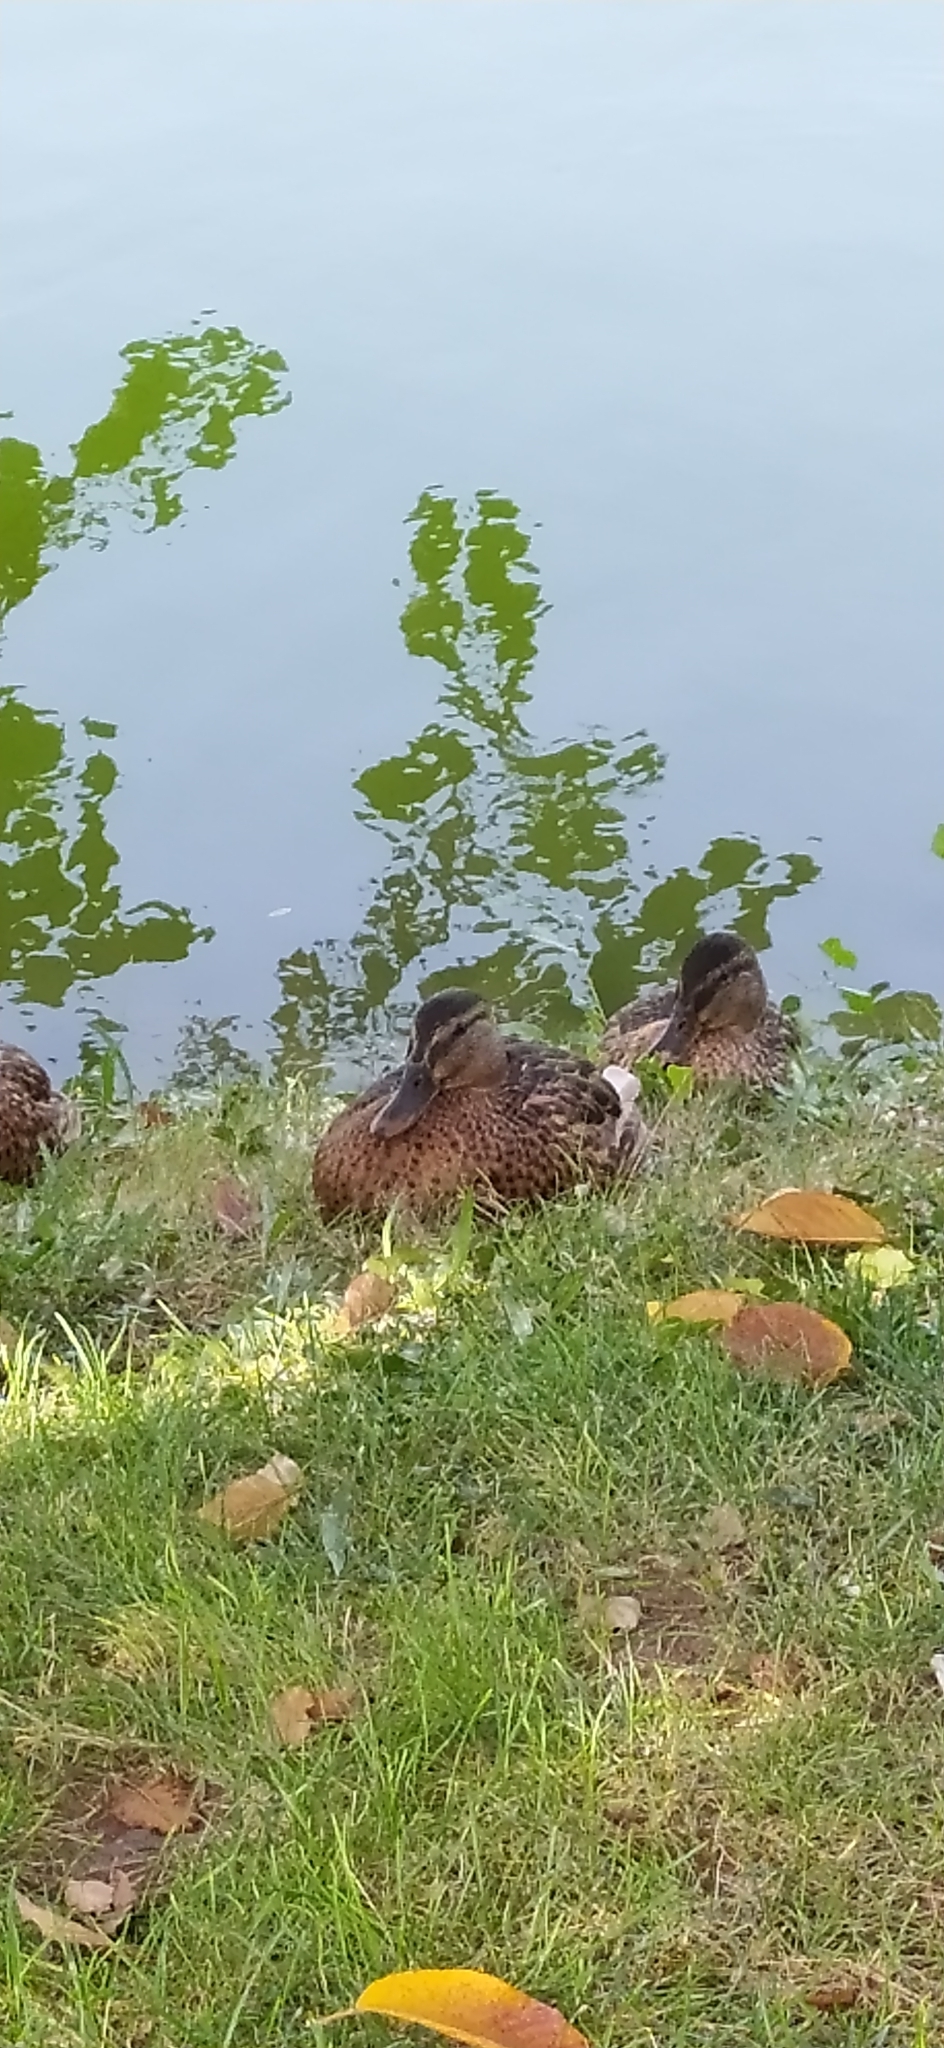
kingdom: Animalia
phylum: Chordata
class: Aves
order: Anseriformes
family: Anatidae
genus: Anas
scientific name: Anas platyrhynchos
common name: Mallard
